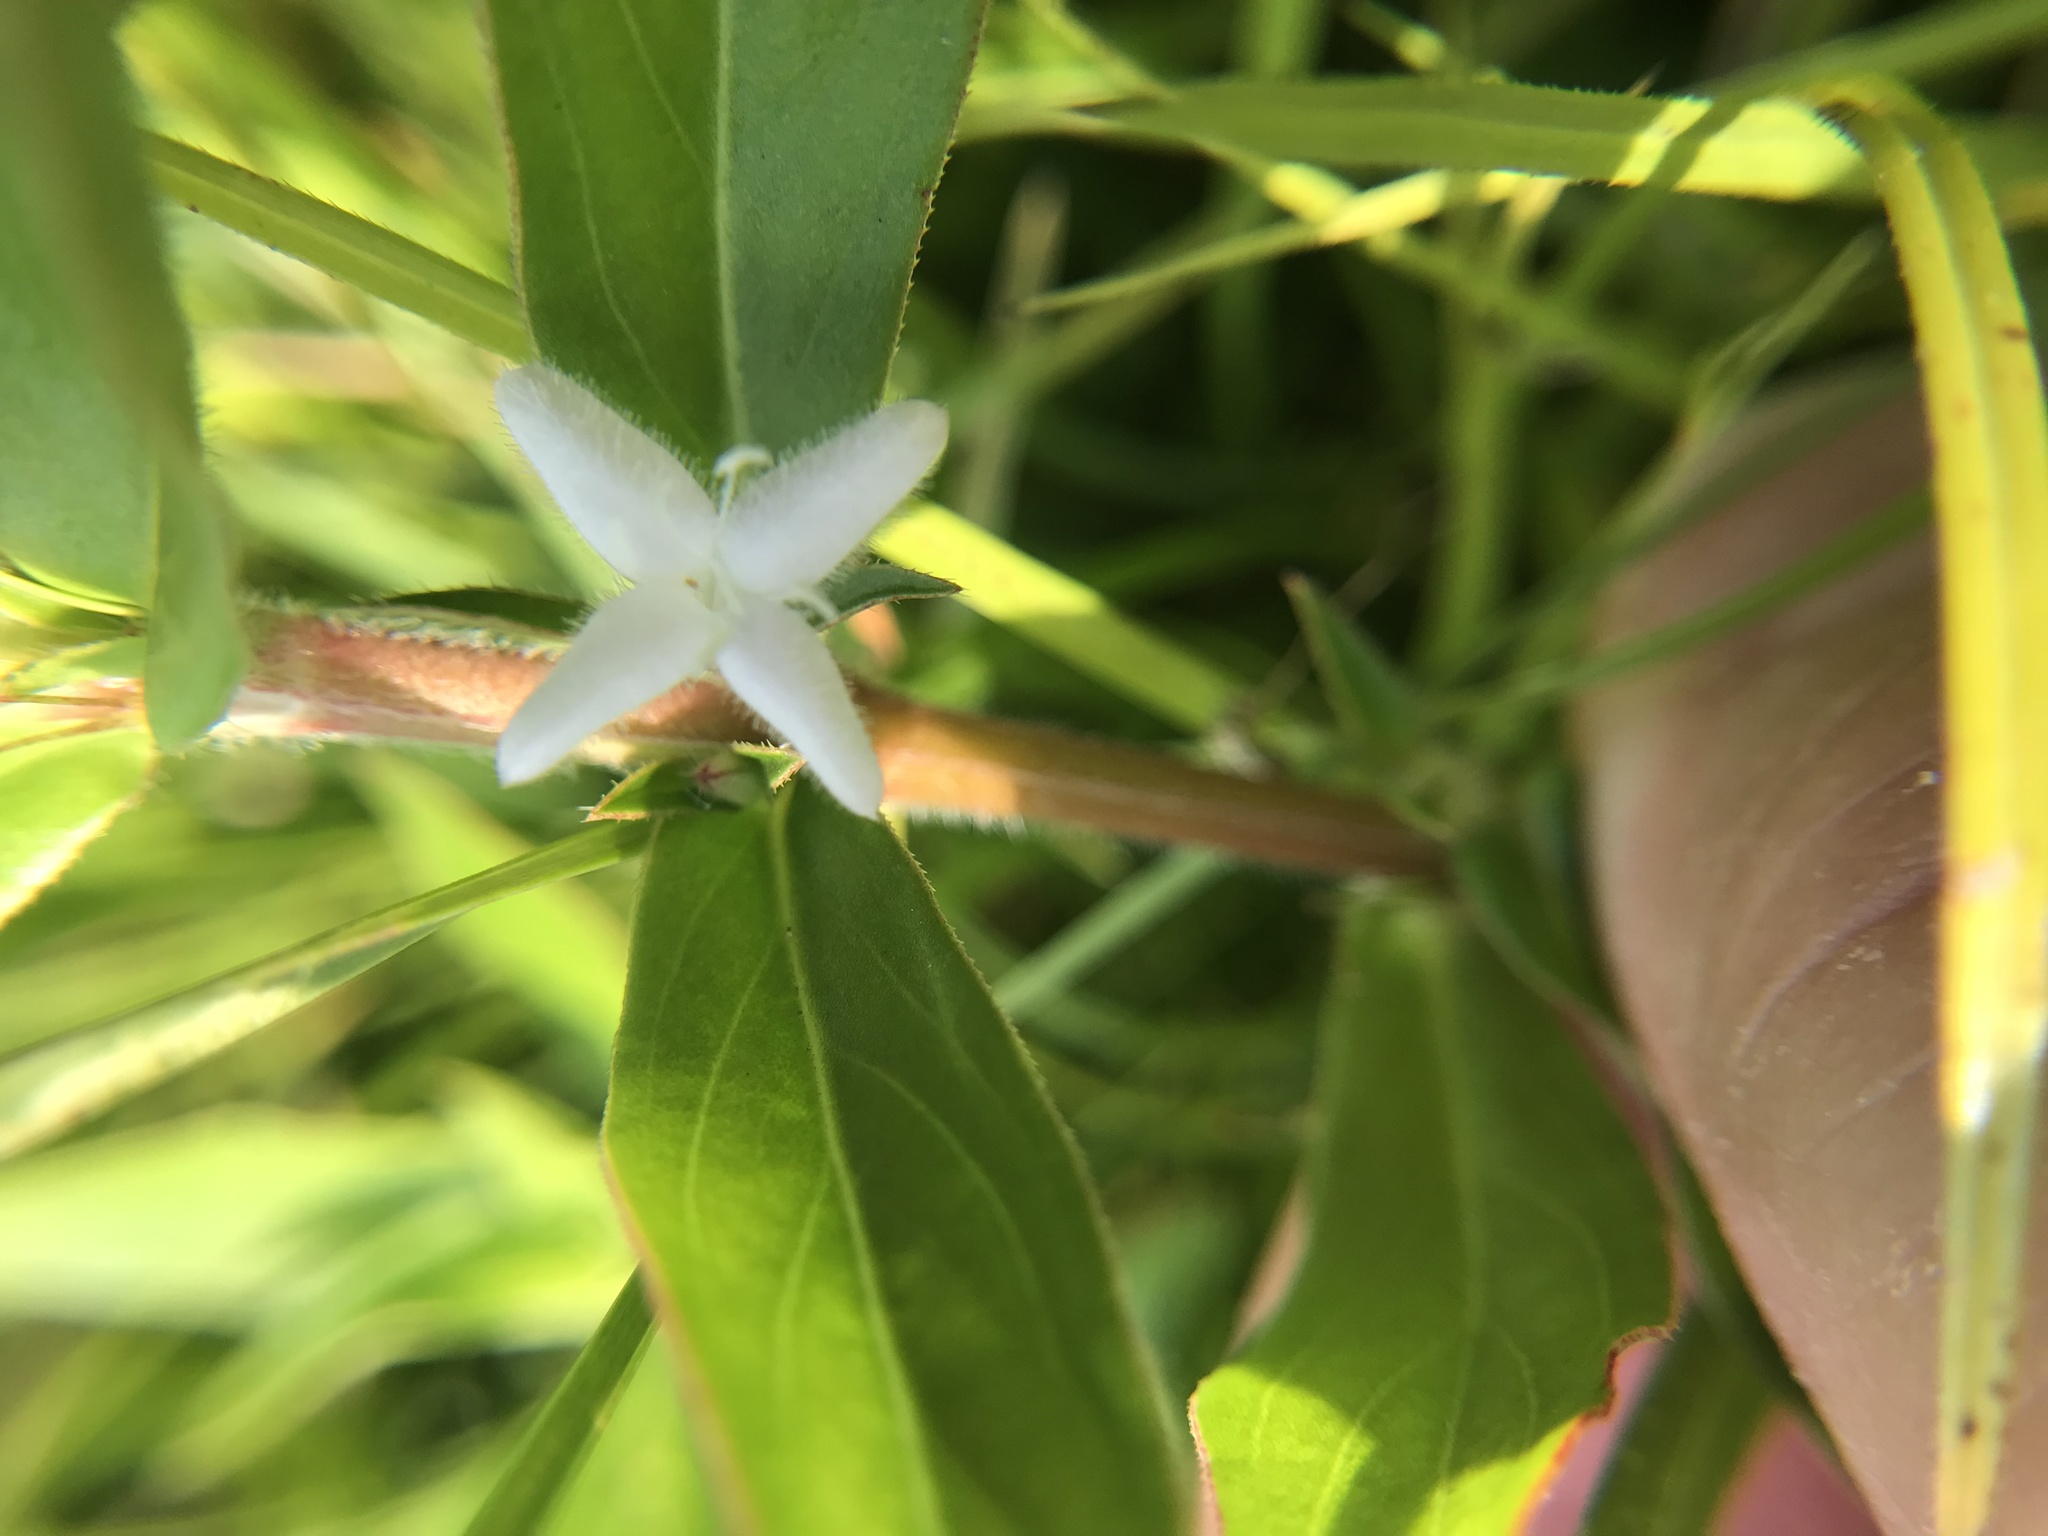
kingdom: Plantae
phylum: Tracheophyta
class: Magnoliopsida
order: Gentianales
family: Rubiaceae
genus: Diodia
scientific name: Diodia virginiana
